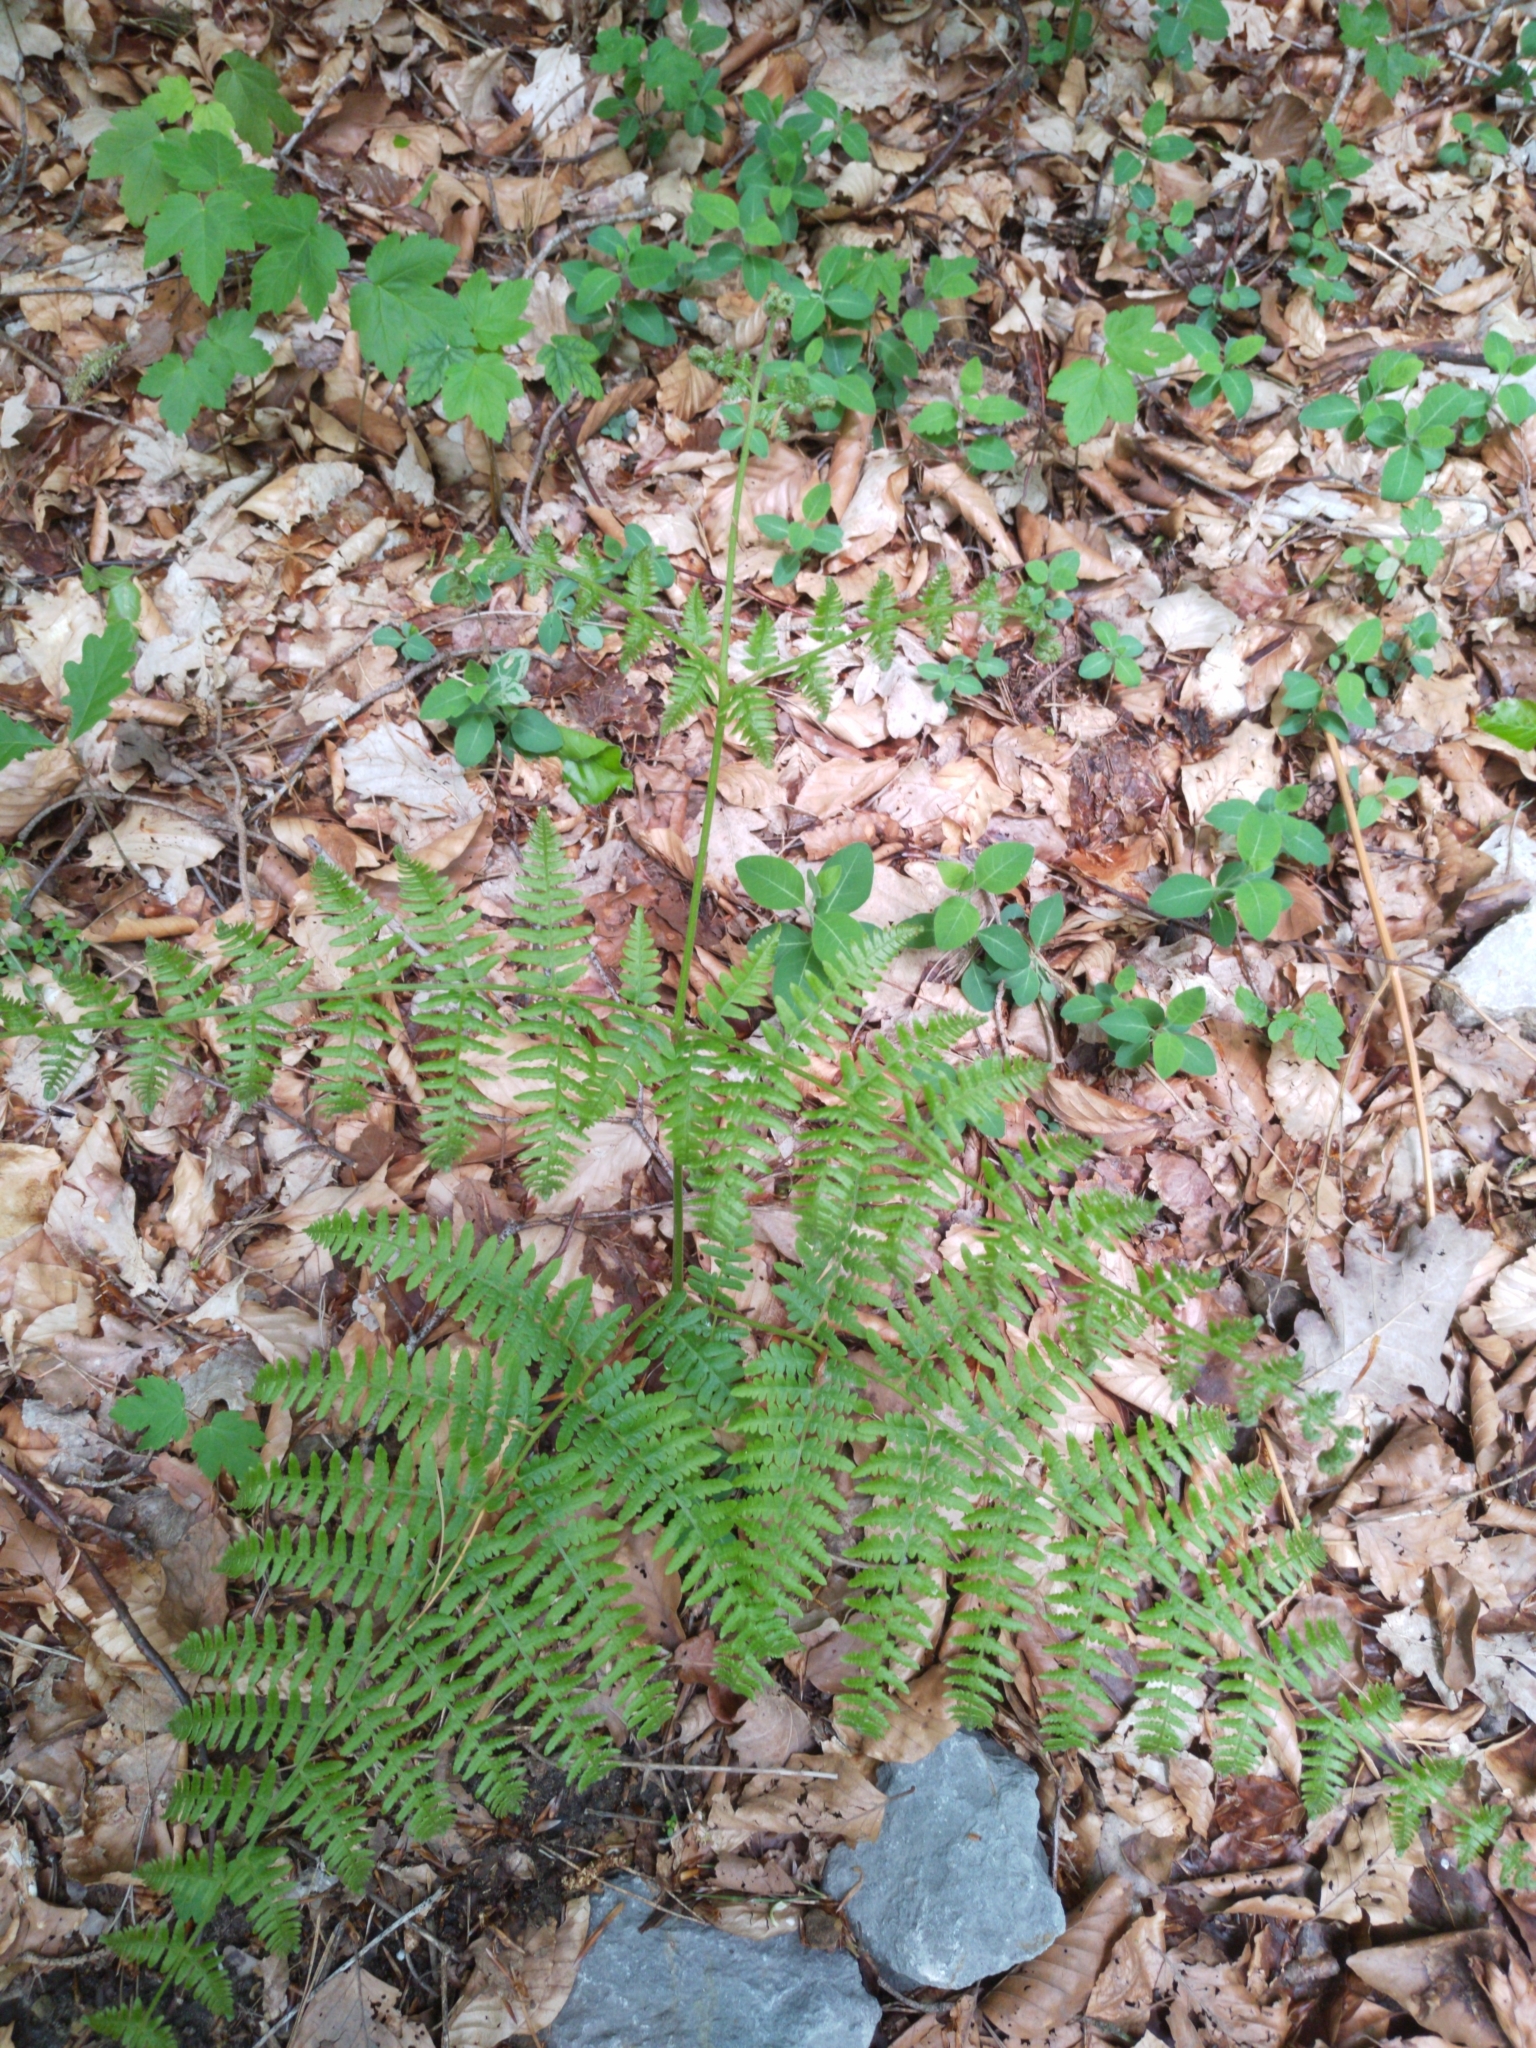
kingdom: Plantae
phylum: Tracheophyta
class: Polypodiopsida
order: Polypodiales
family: Dennstaedtiaceae
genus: Pteridium
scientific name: Pteridium aquilinum
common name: Bracken
